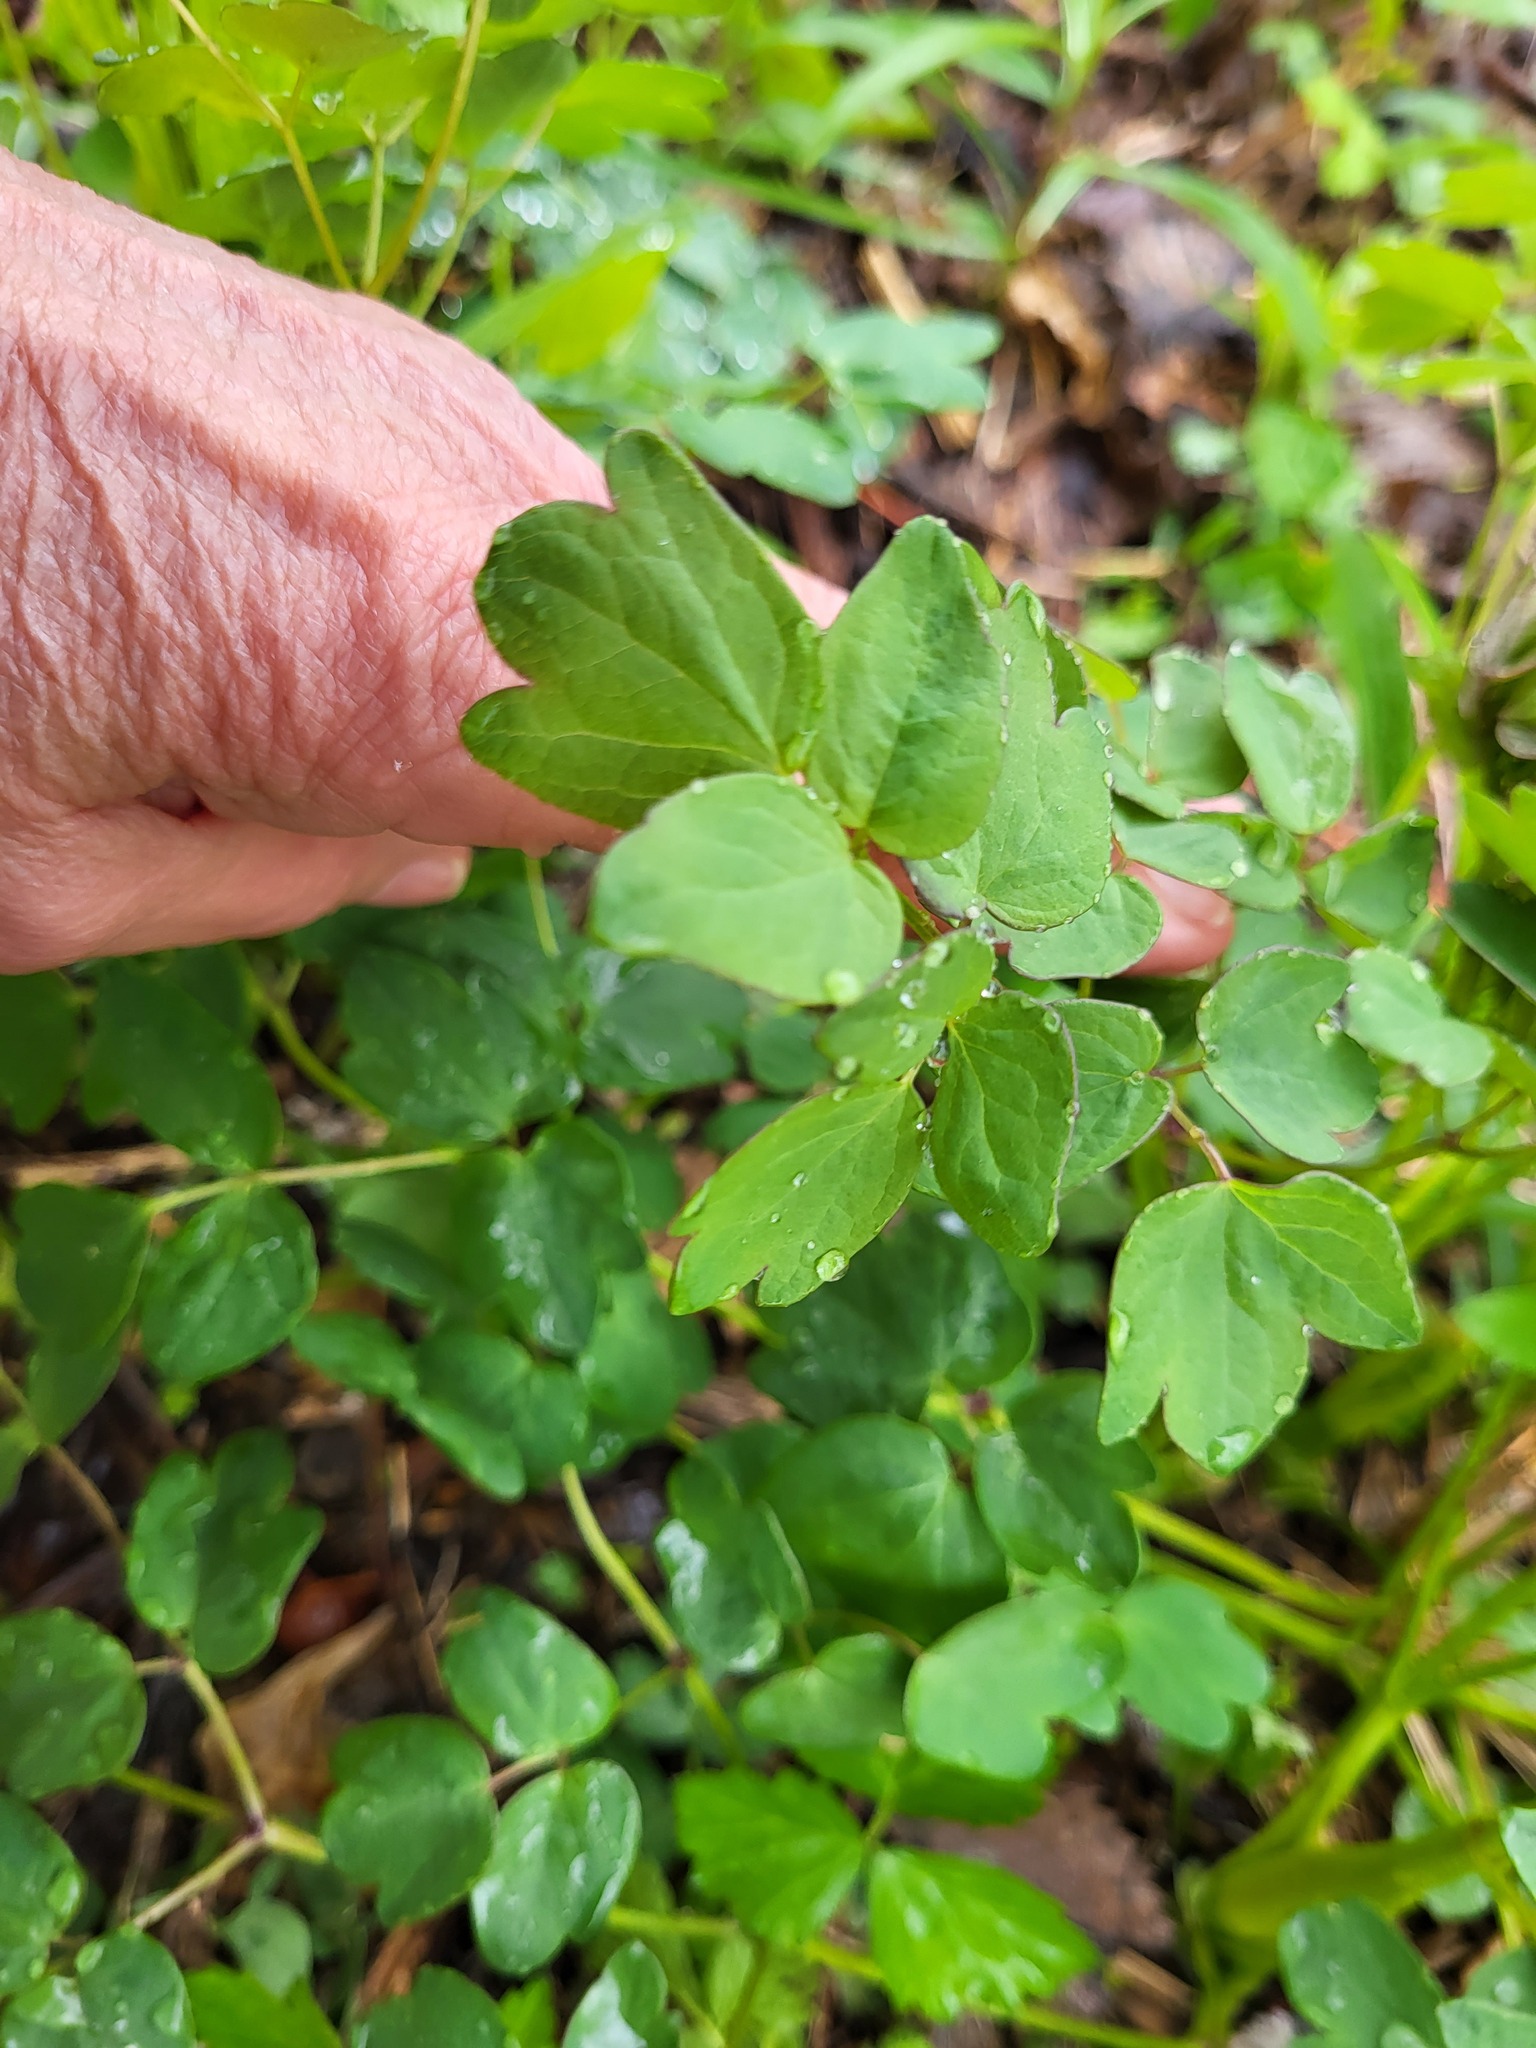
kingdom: Plantae
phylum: Tracheophyta
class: Magnoliopsida
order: Ranunculales
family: Ranunculaceae
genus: Thalictrum
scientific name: Thalictrum dioicum
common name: Early meadow-rue
